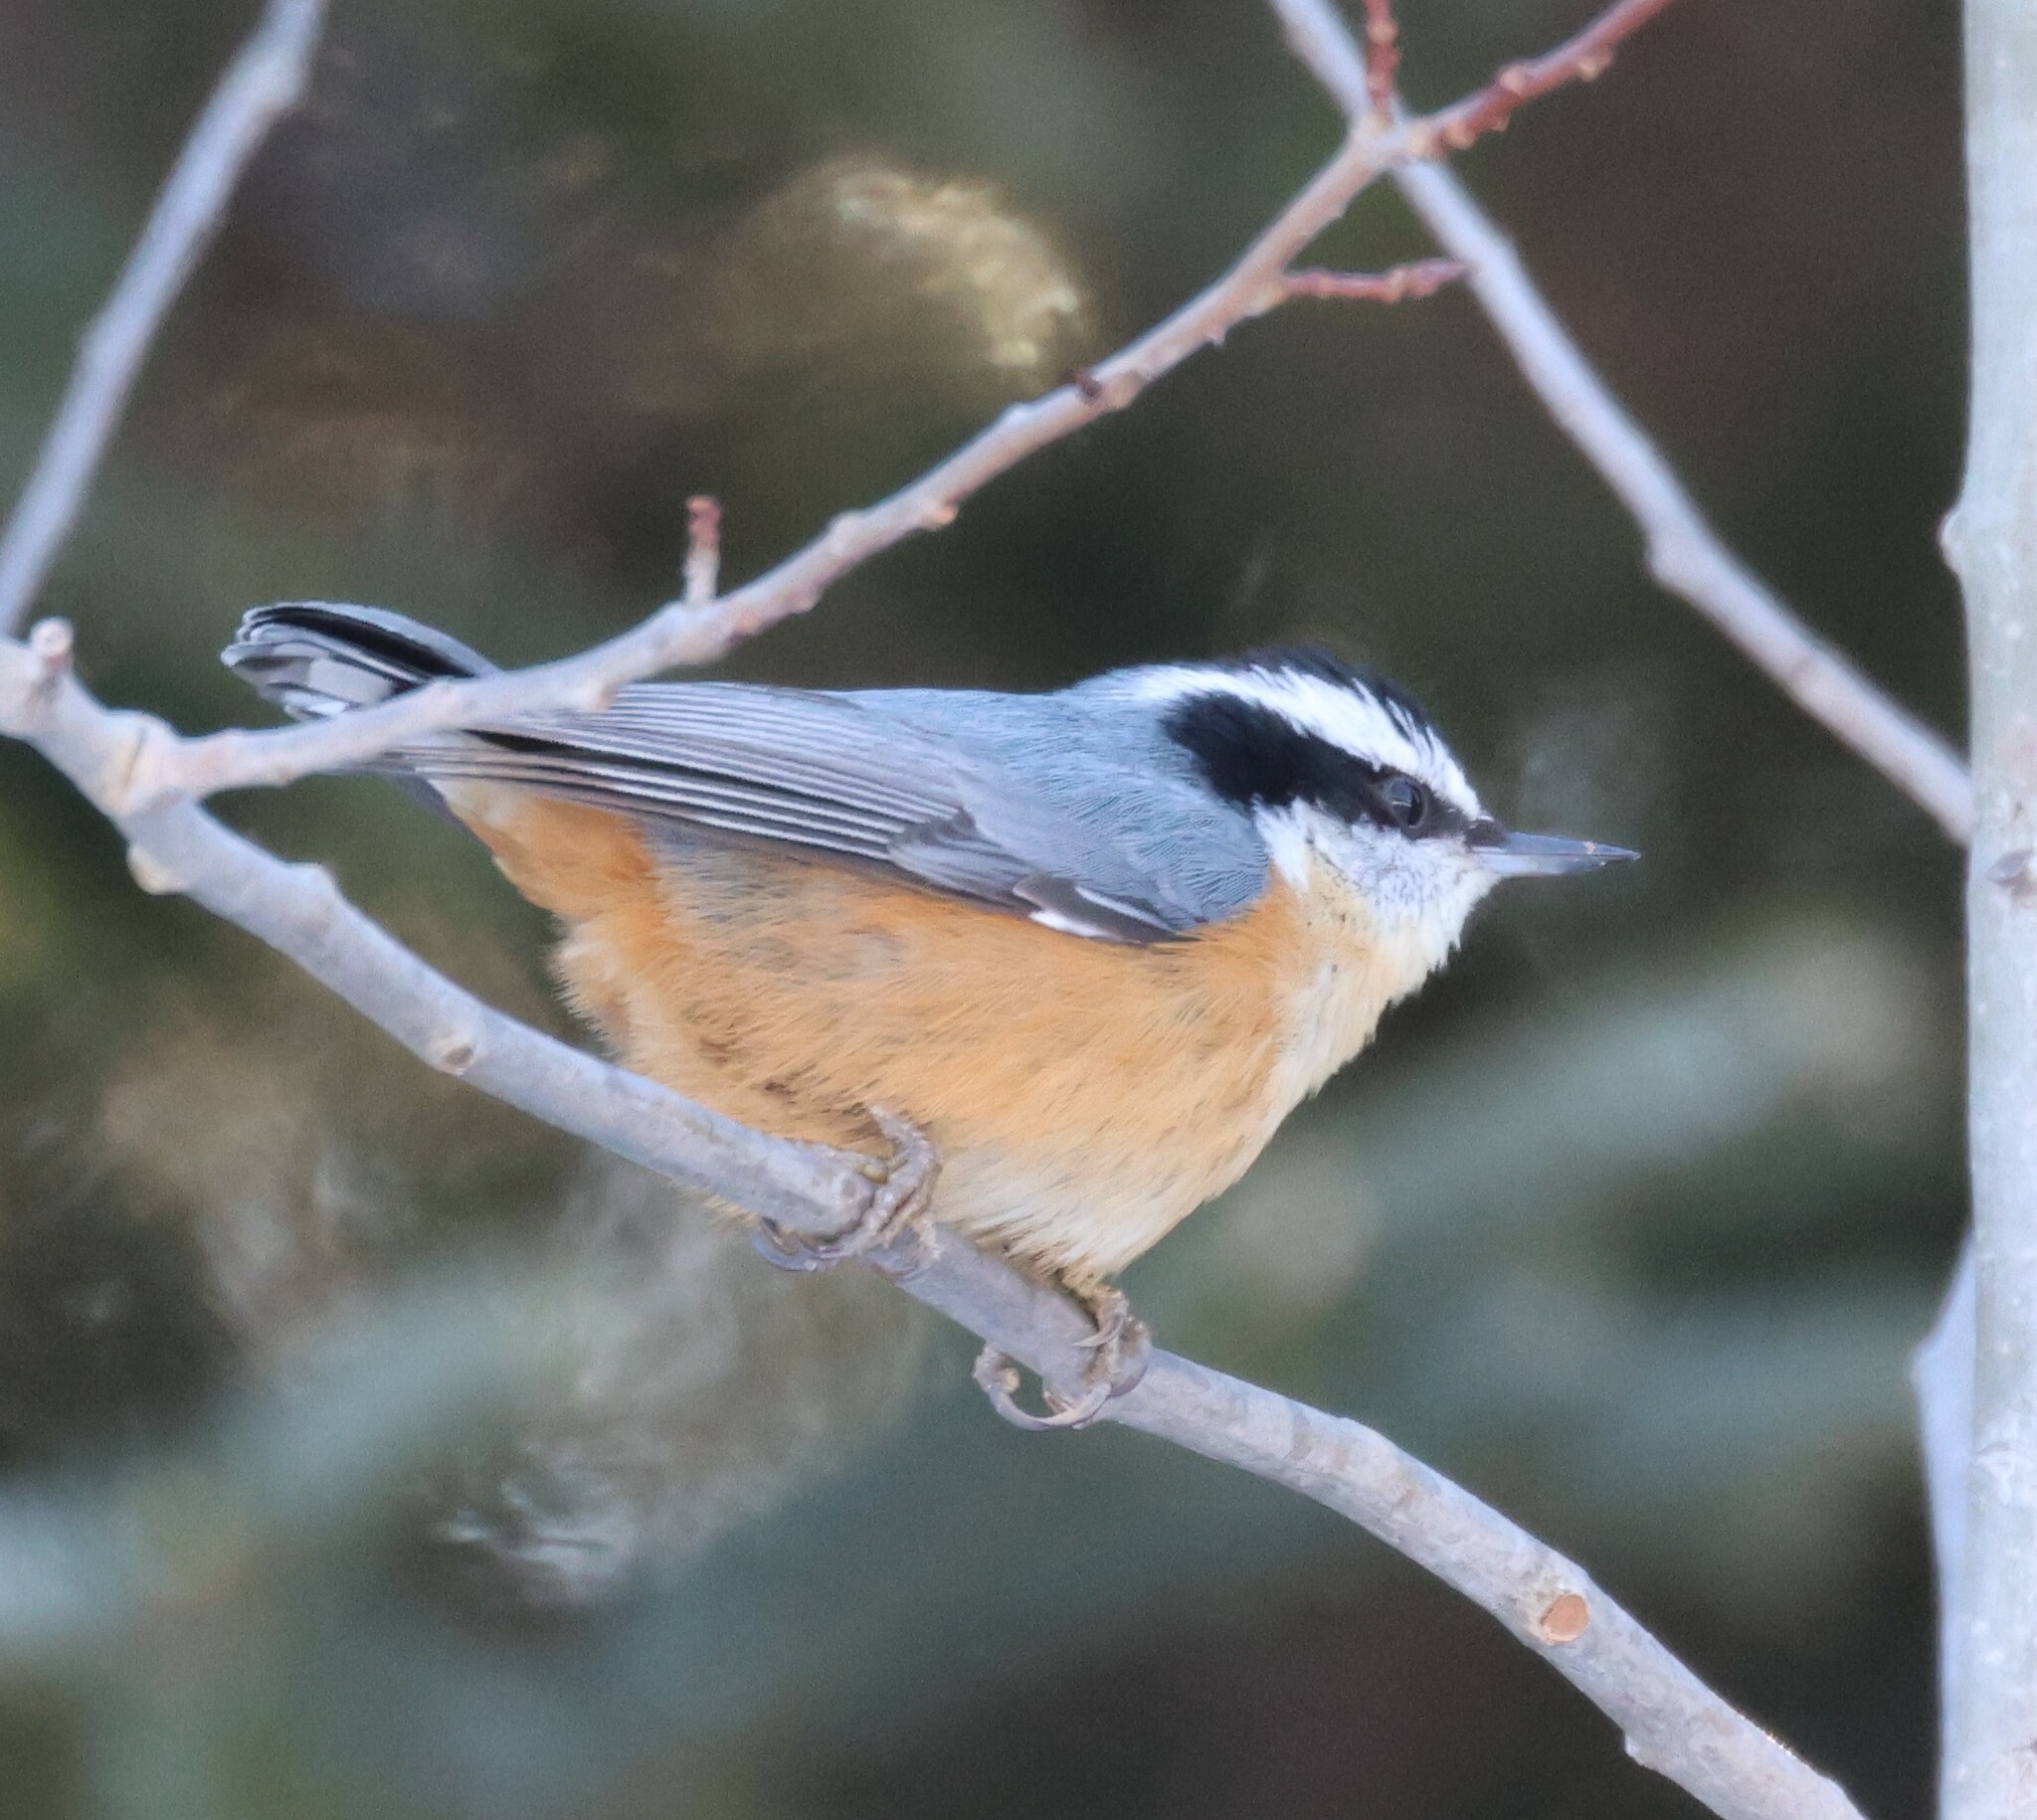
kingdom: Animalia
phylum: Chordata
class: Aves
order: Passeriformes
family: Sittidae
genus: Sitta
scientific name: Sitta canadensis
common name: Red-breasted nuthatch
